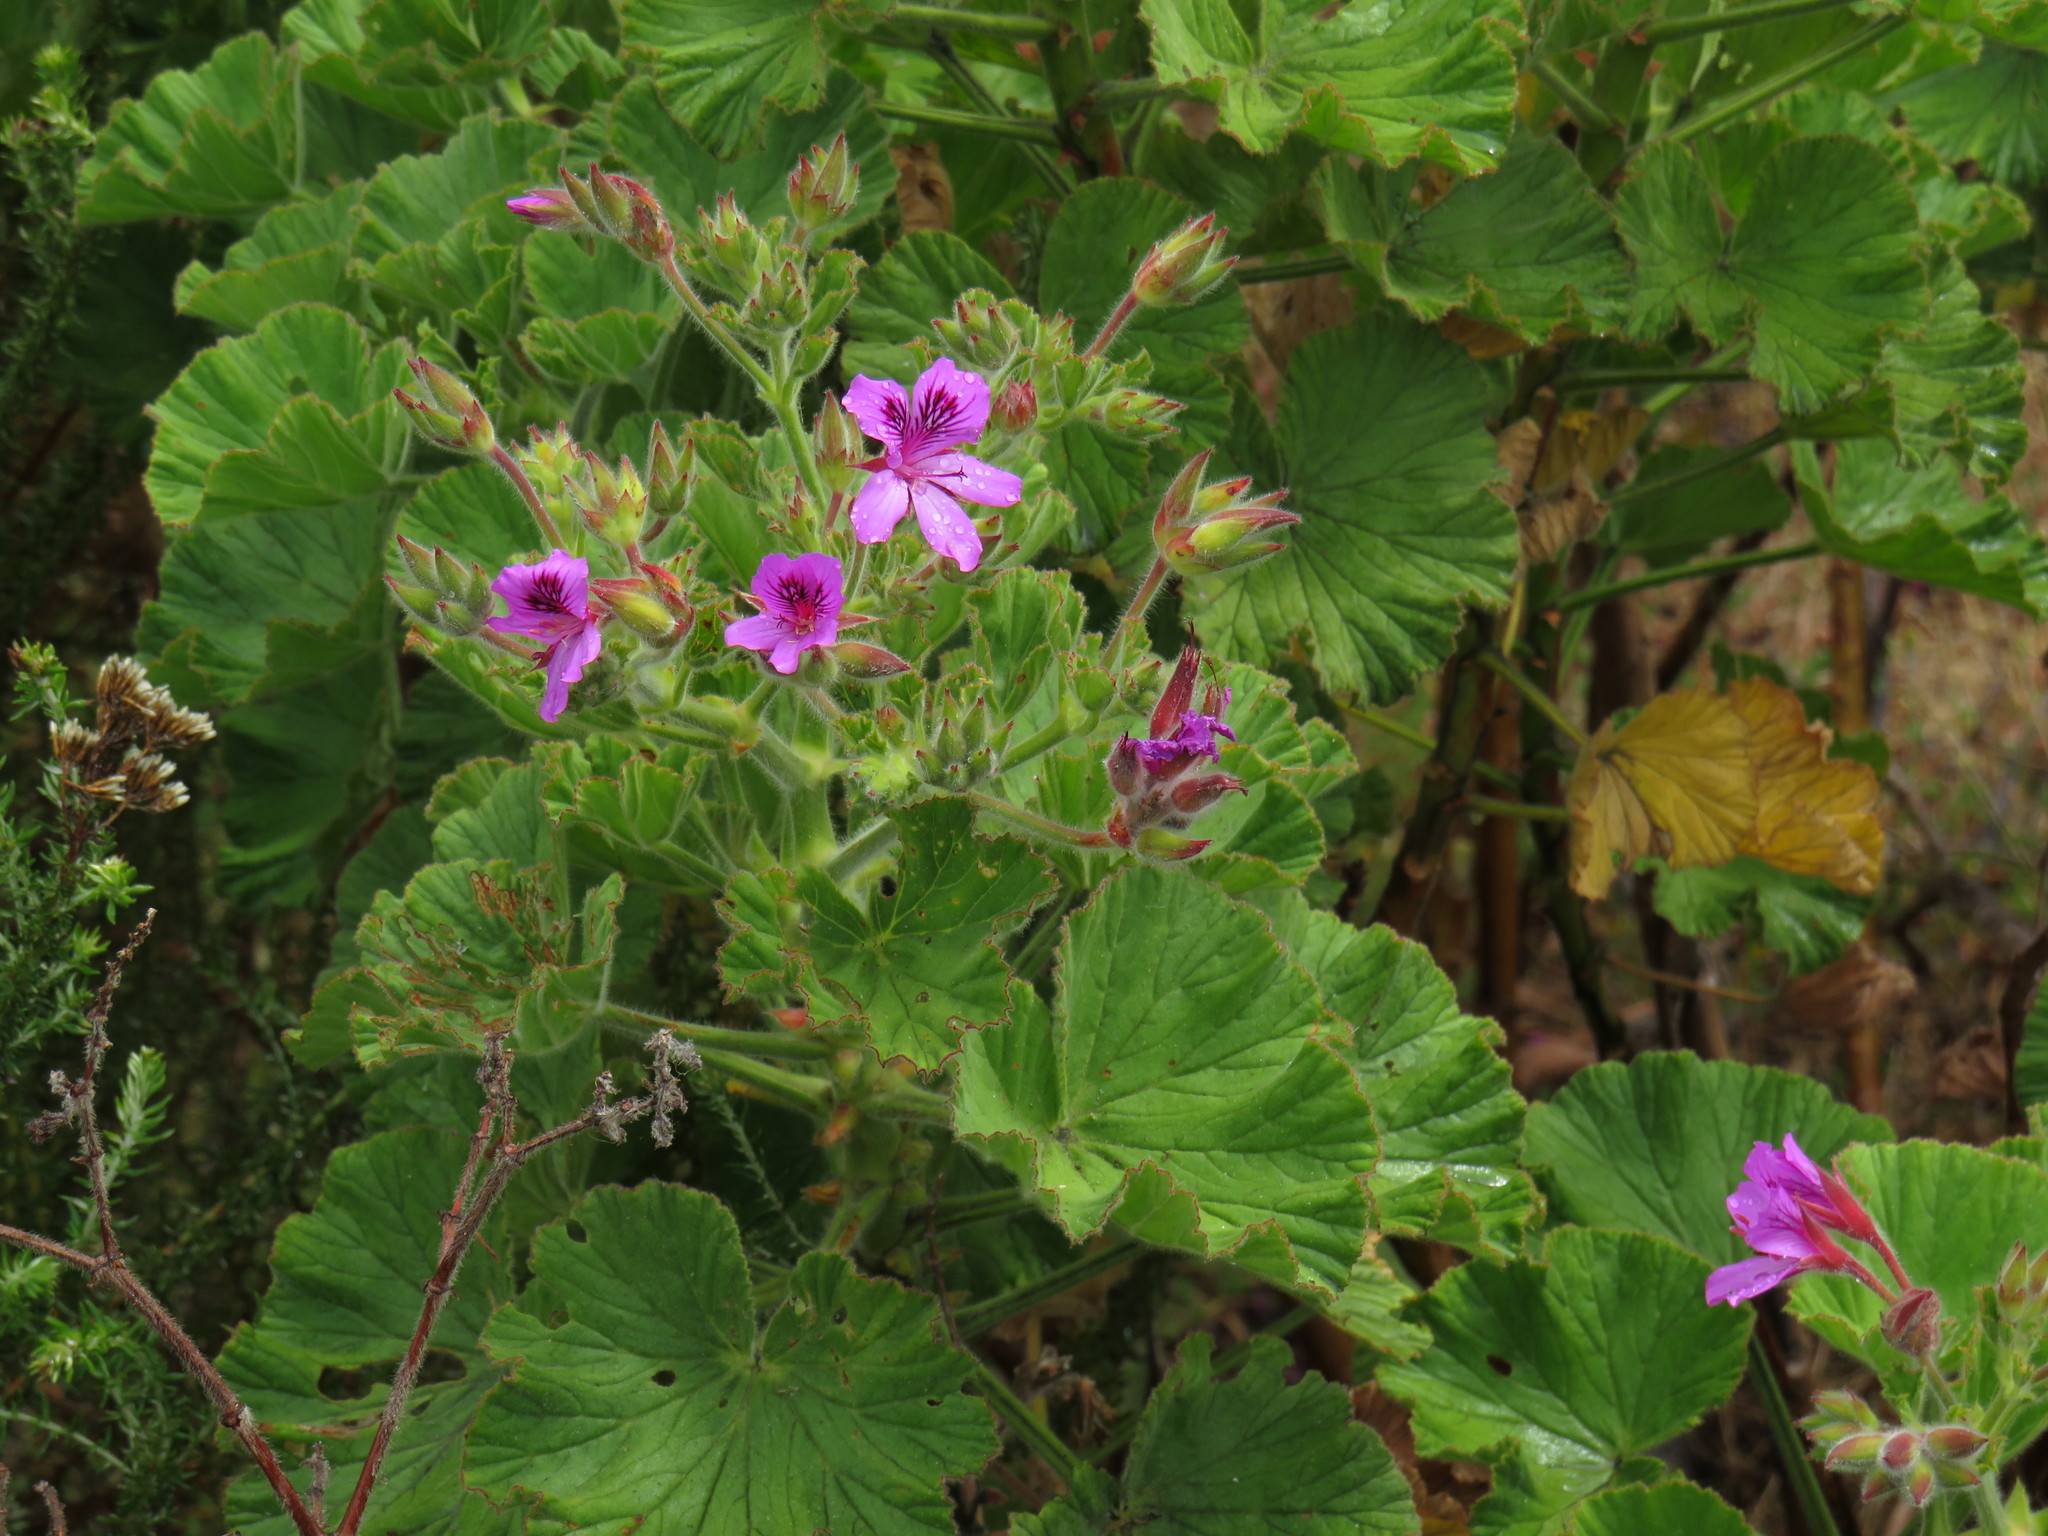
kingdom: Plantae
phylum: Tracheophyta
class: Magnoliopsida
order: Geraniales
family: Geraniaceae
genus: Pelargonium
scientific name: Pelargonium cucullatum
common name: Tree pelargonium
